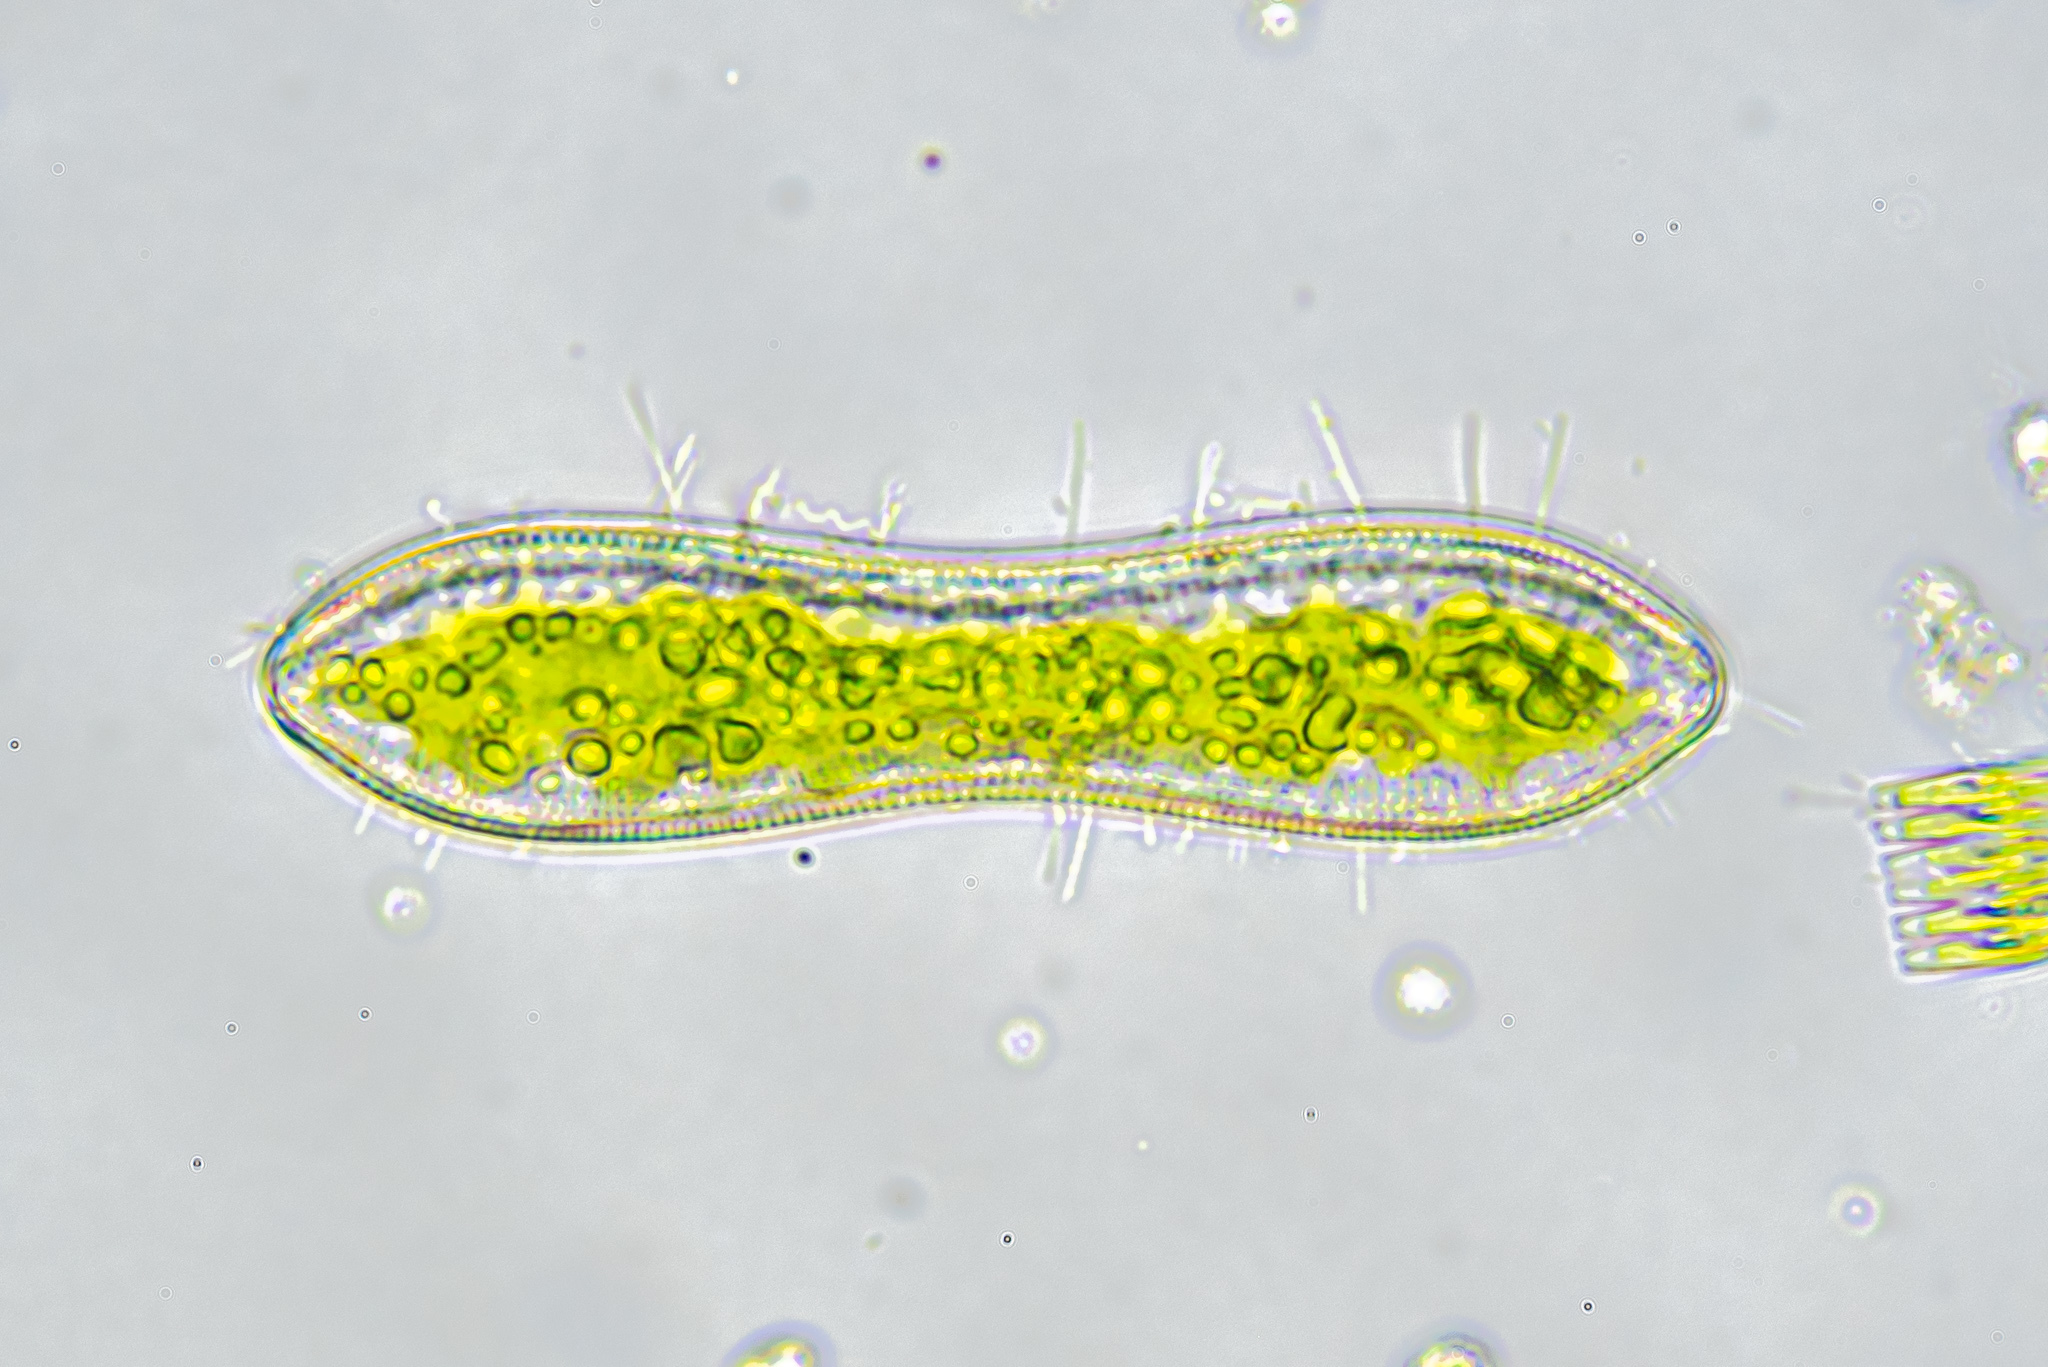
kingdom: Chromista
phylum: Ochrophyta
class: Bacillariophyceae
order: Surirellales
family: Surirellaceae
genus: Surirella
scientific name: Surirella librile
